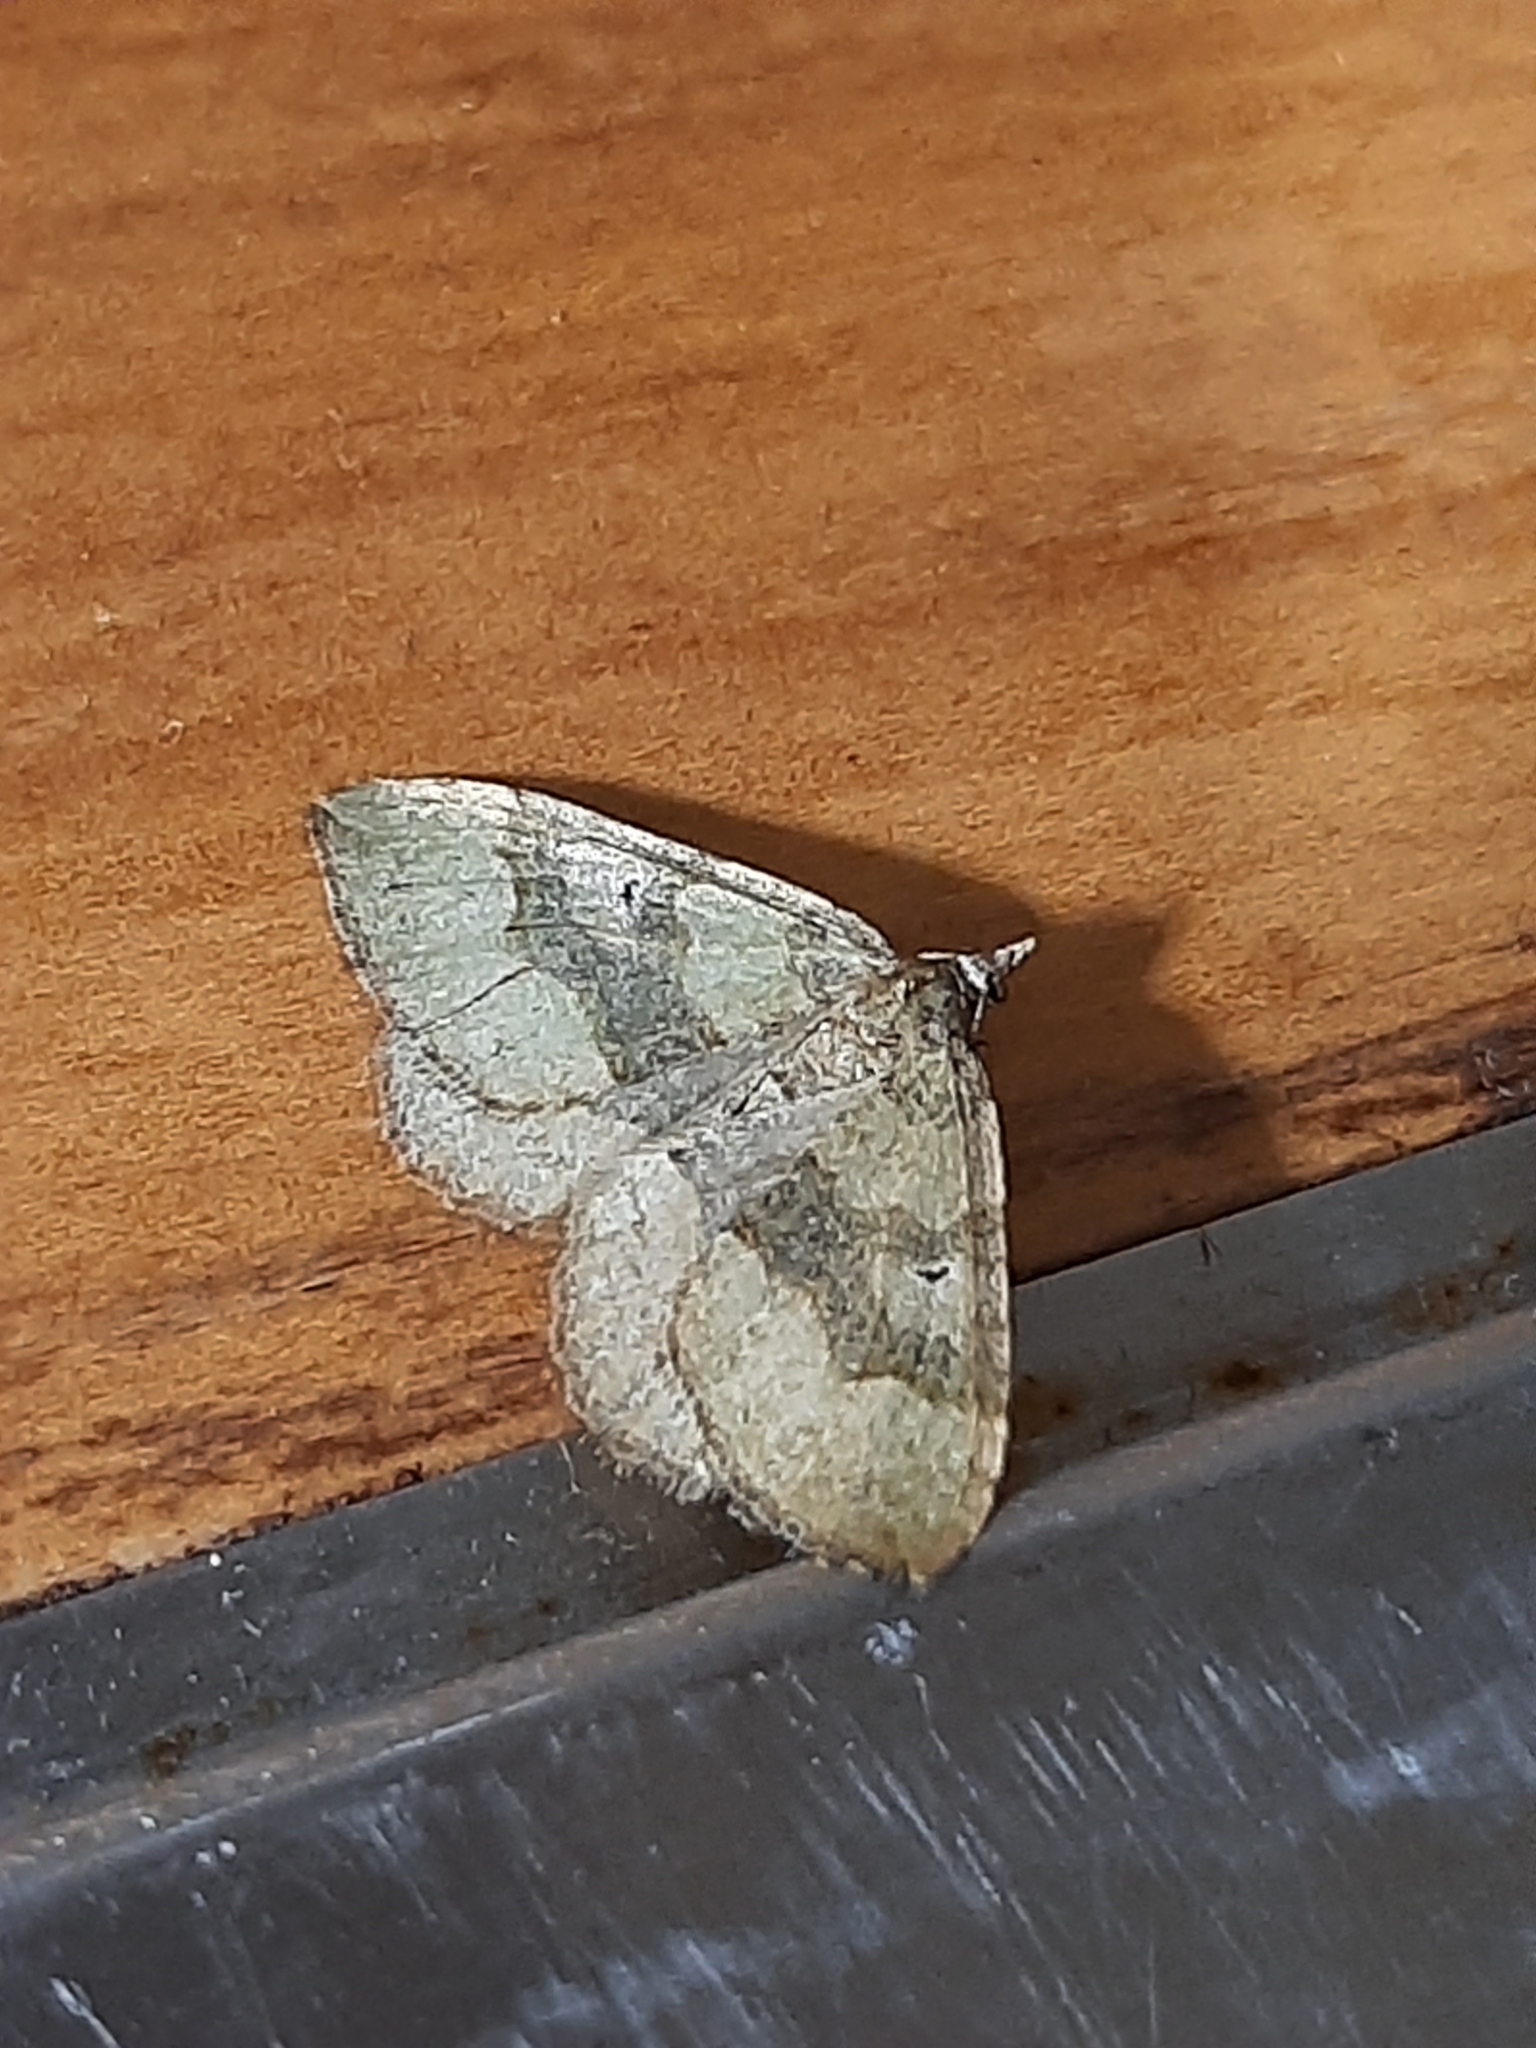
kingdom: Animalia
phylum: Arthropoda
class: Insecta
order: Lepidoptera
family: Geometridae
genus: Epyaxa
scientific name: Epyaxa rosearia
